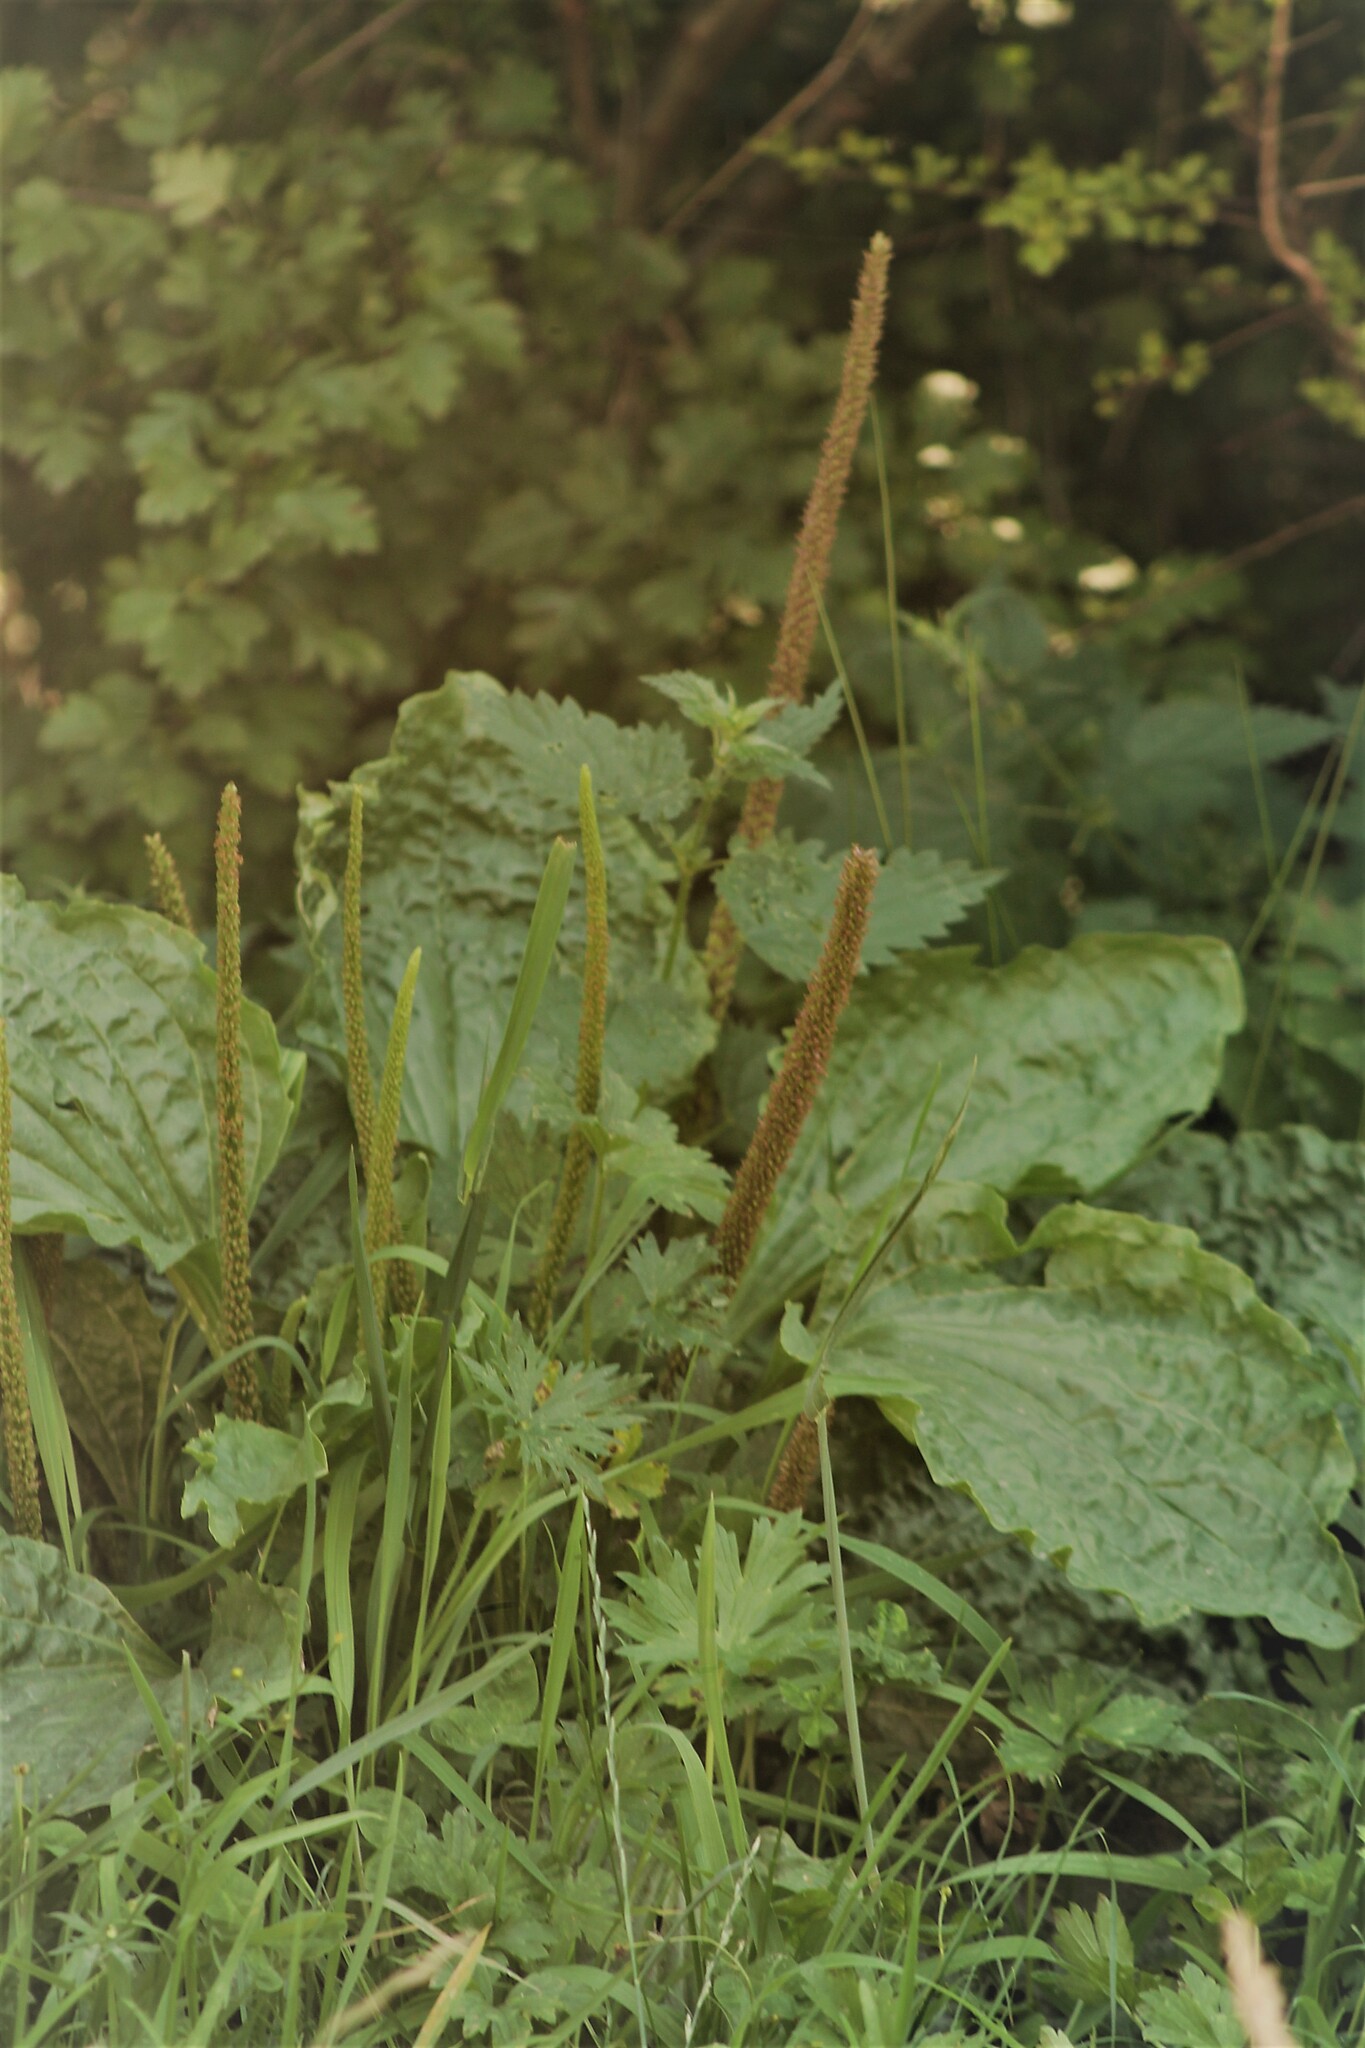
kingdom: Plantae
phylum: Tracheophyta
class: Magnoliopsida
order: Lamiales
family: Plantaginaceae
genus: Plantago
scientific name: Plantago major
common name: Common plantain
